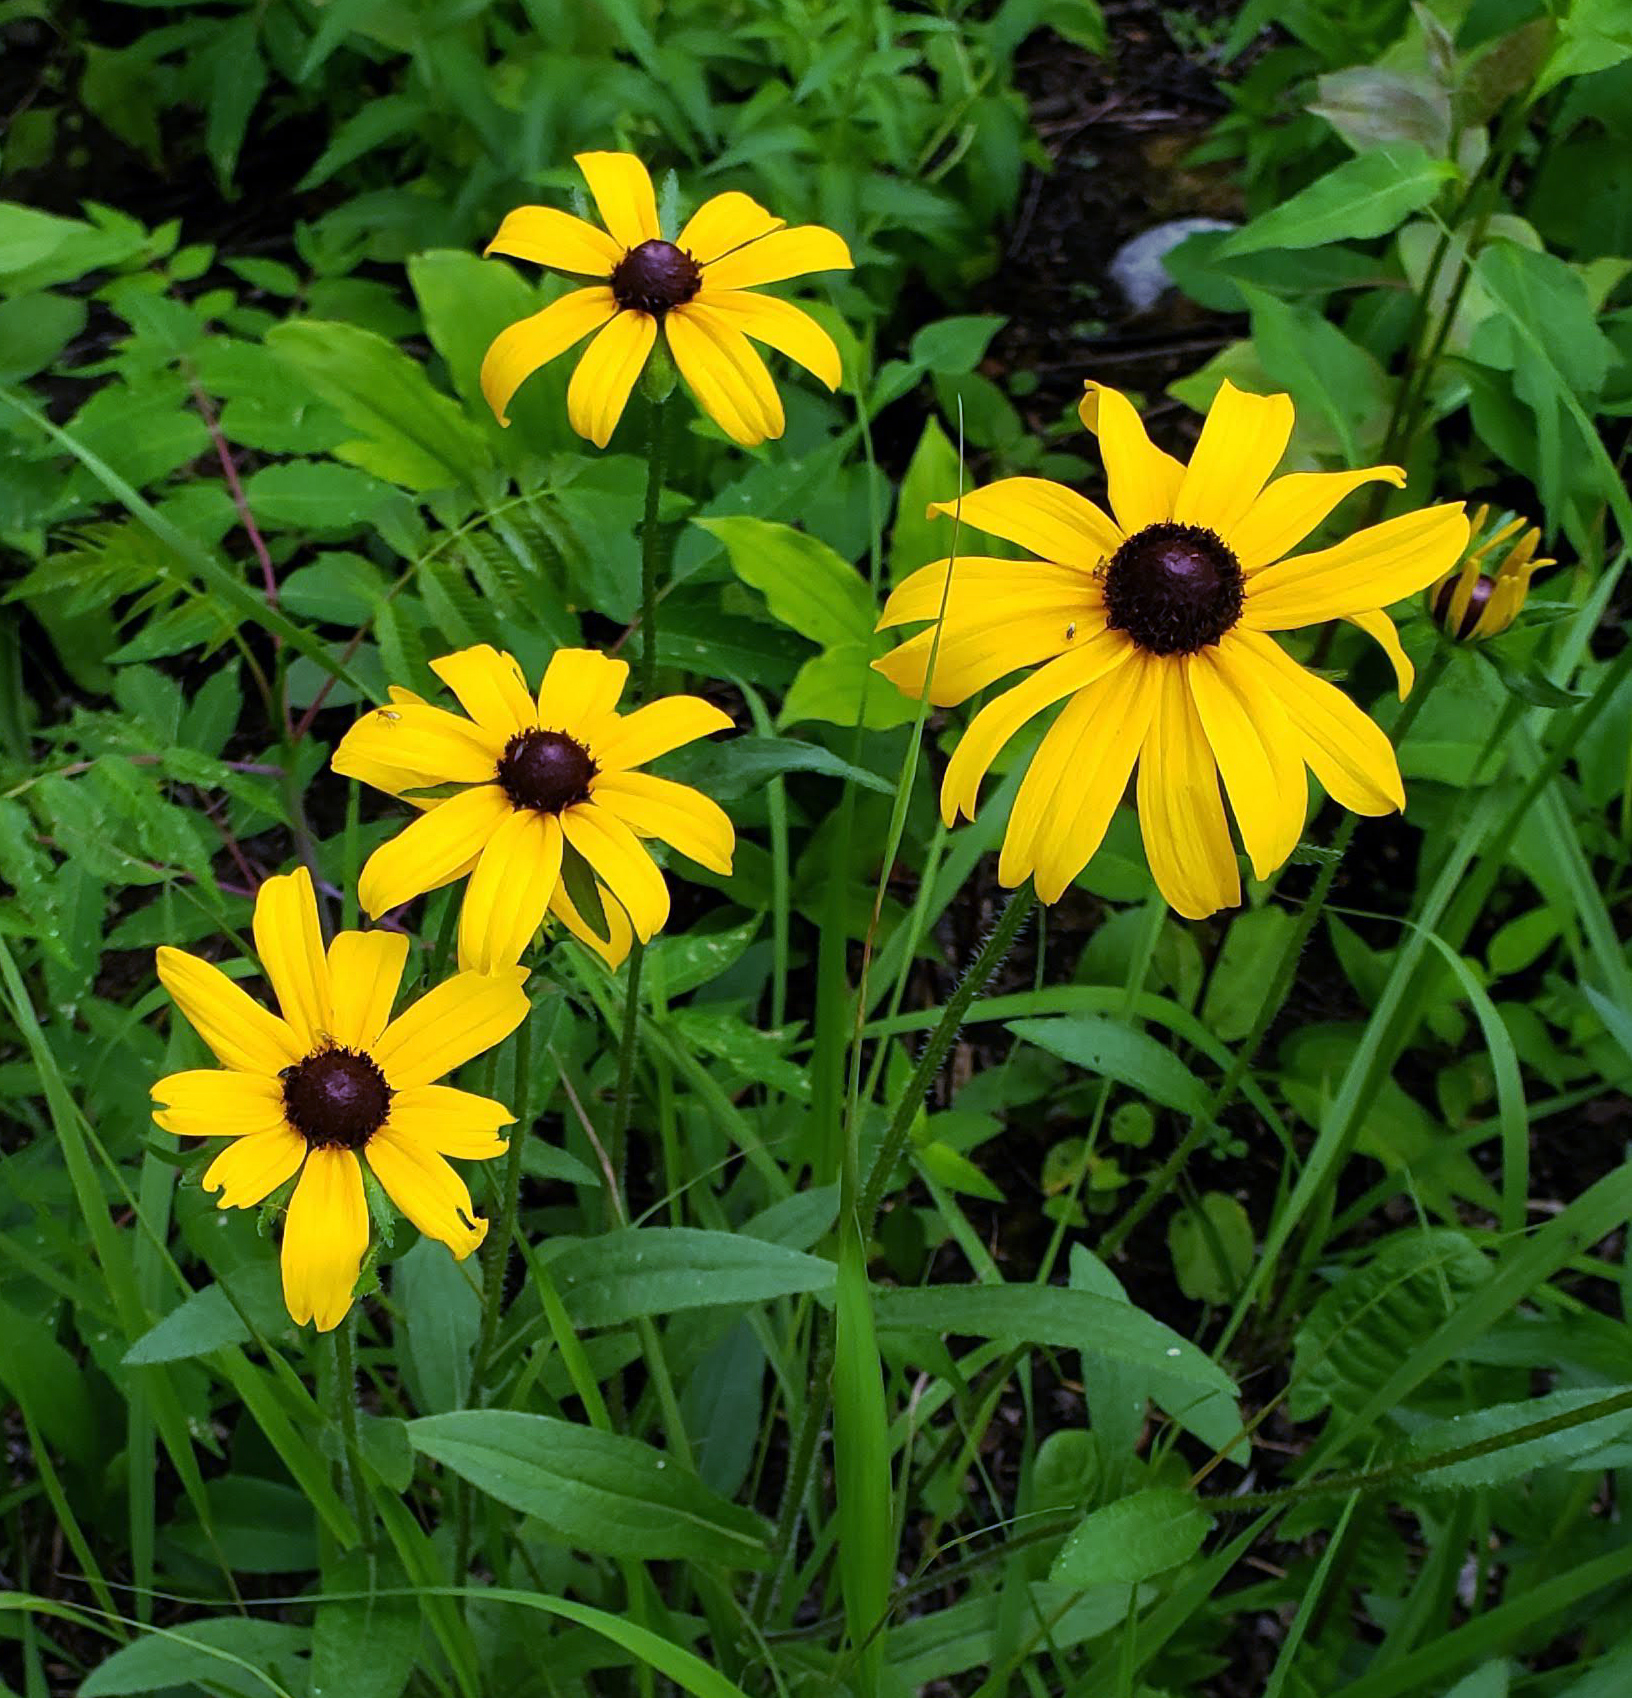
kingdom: Plantae
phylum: Tracheophyta
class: Magnoliopsida
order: Asterales
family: Asteraceae
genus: Rudbeckia
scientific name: Rudbeckia hirta
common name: Black-eyed-susan
